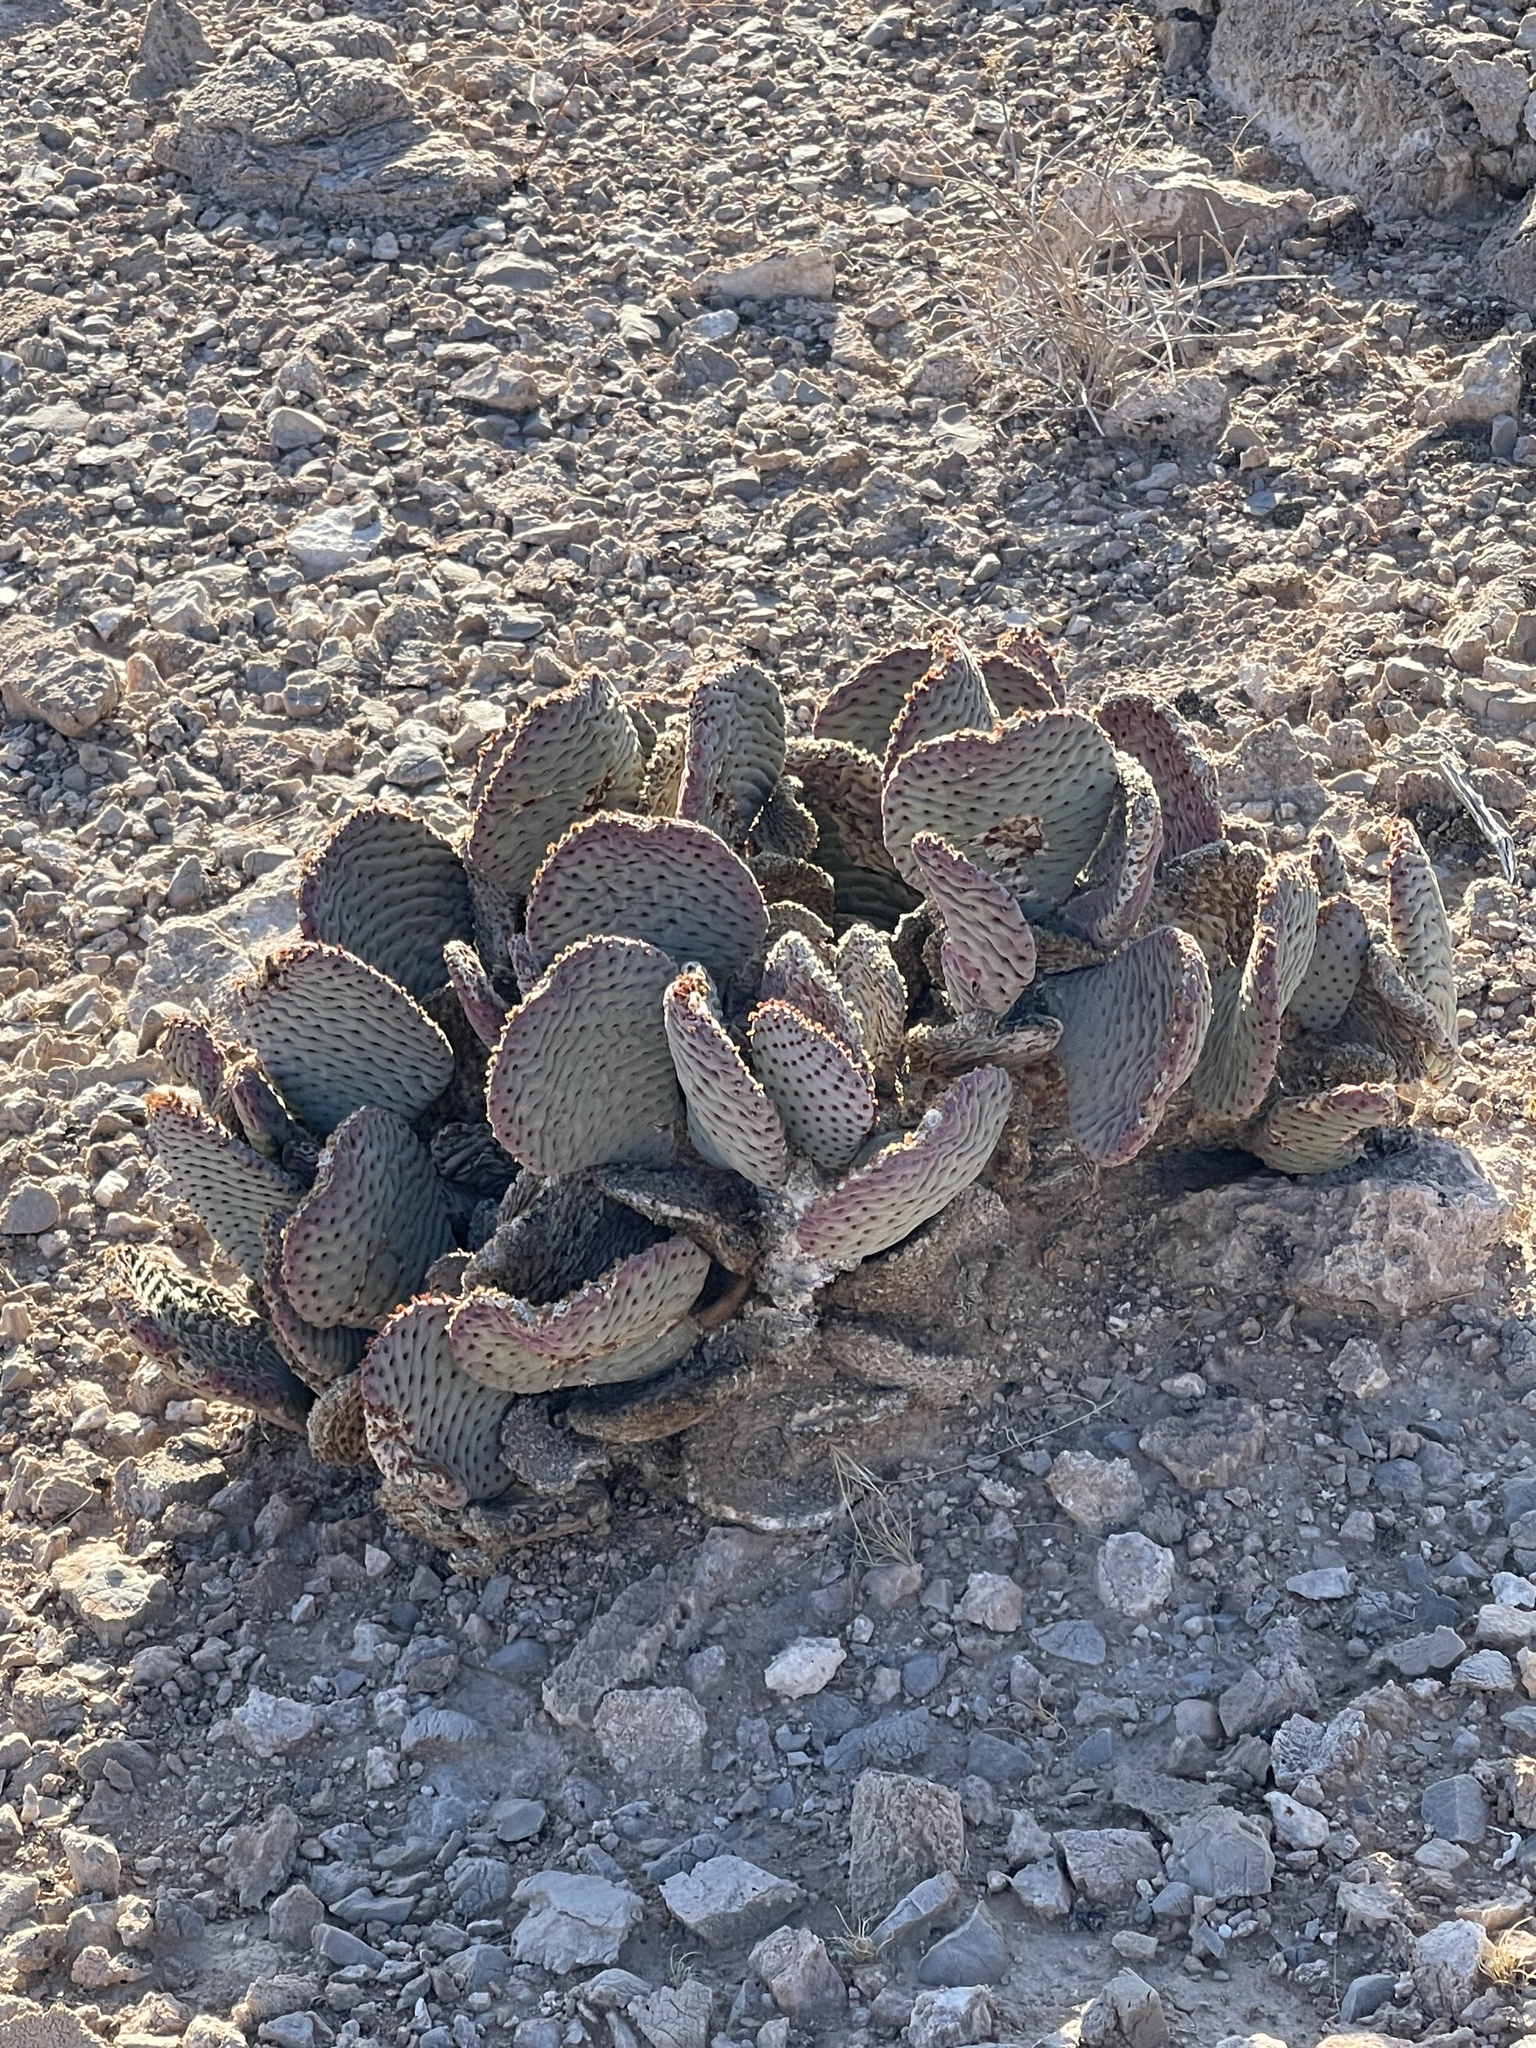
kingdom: Plantae
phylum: Tracheophyta
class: Magnoliopsida
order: Caryophyllales
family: Cactaceae
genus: Opuntia
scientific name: Opuntia basilaris
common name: Beavertail prickly-pear
